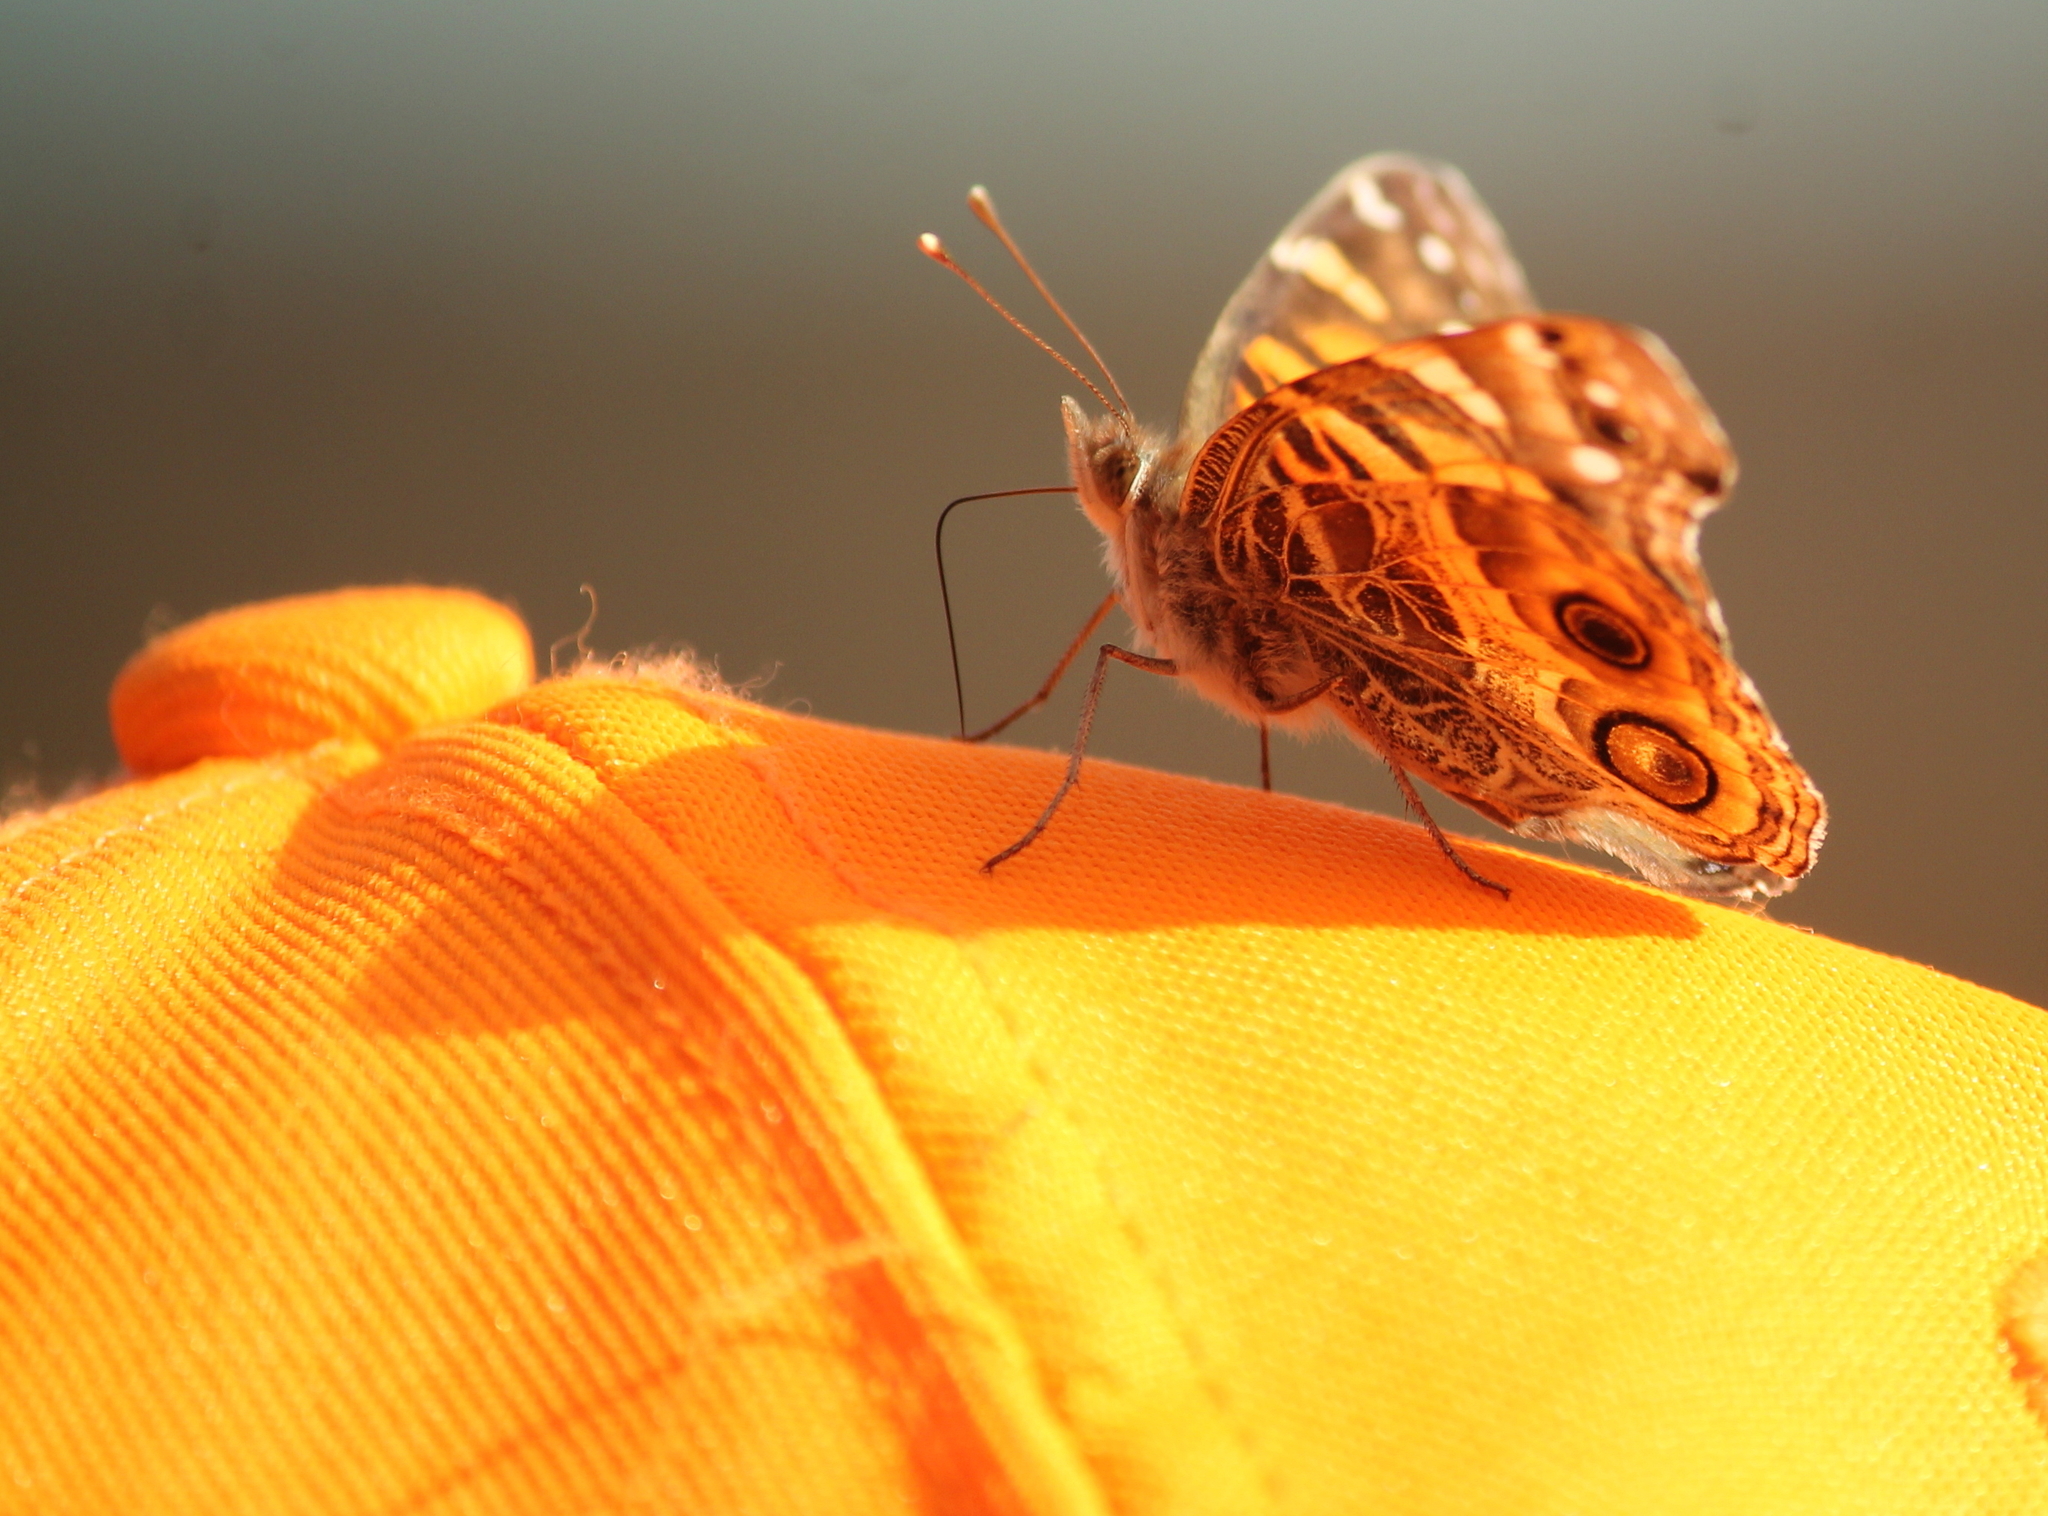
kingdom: Animalia
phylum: Arthropoda
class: Insecta
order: Lepidoptera
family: Nymphalidae
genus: Vanessa
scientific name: Vanessa virginiensis
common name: American lady
